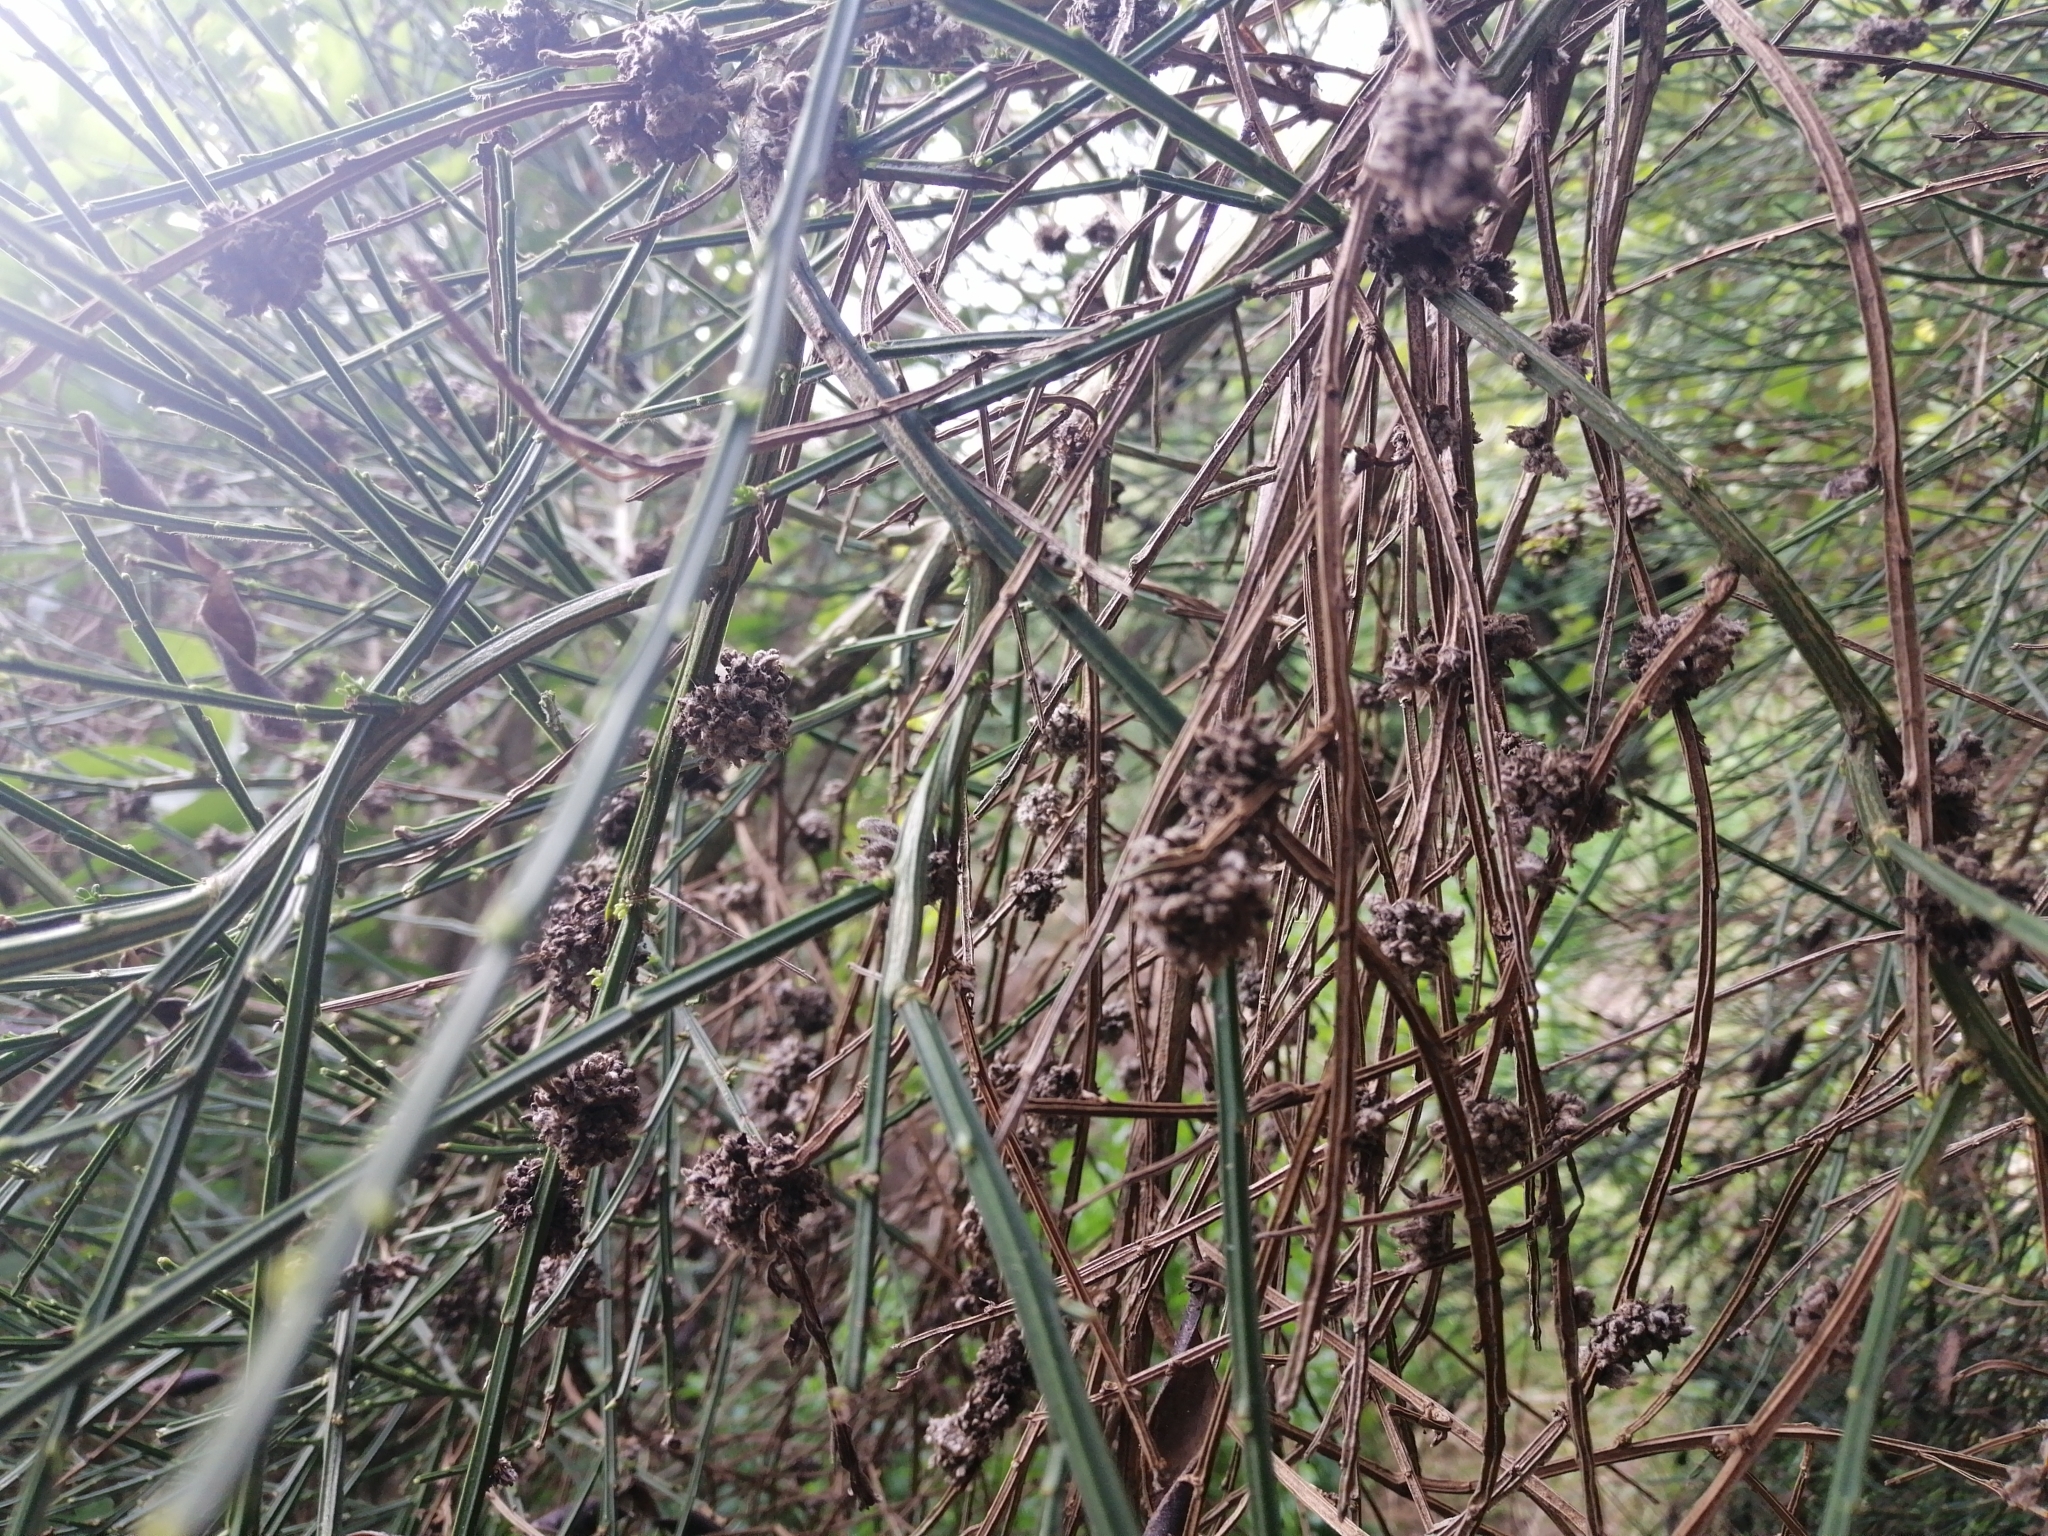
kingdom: Animalia
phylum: Arthropoda
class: Arachnida
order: Trombidiformes
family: Eriophyidae
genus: Aceria
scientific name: Aceria genistae
